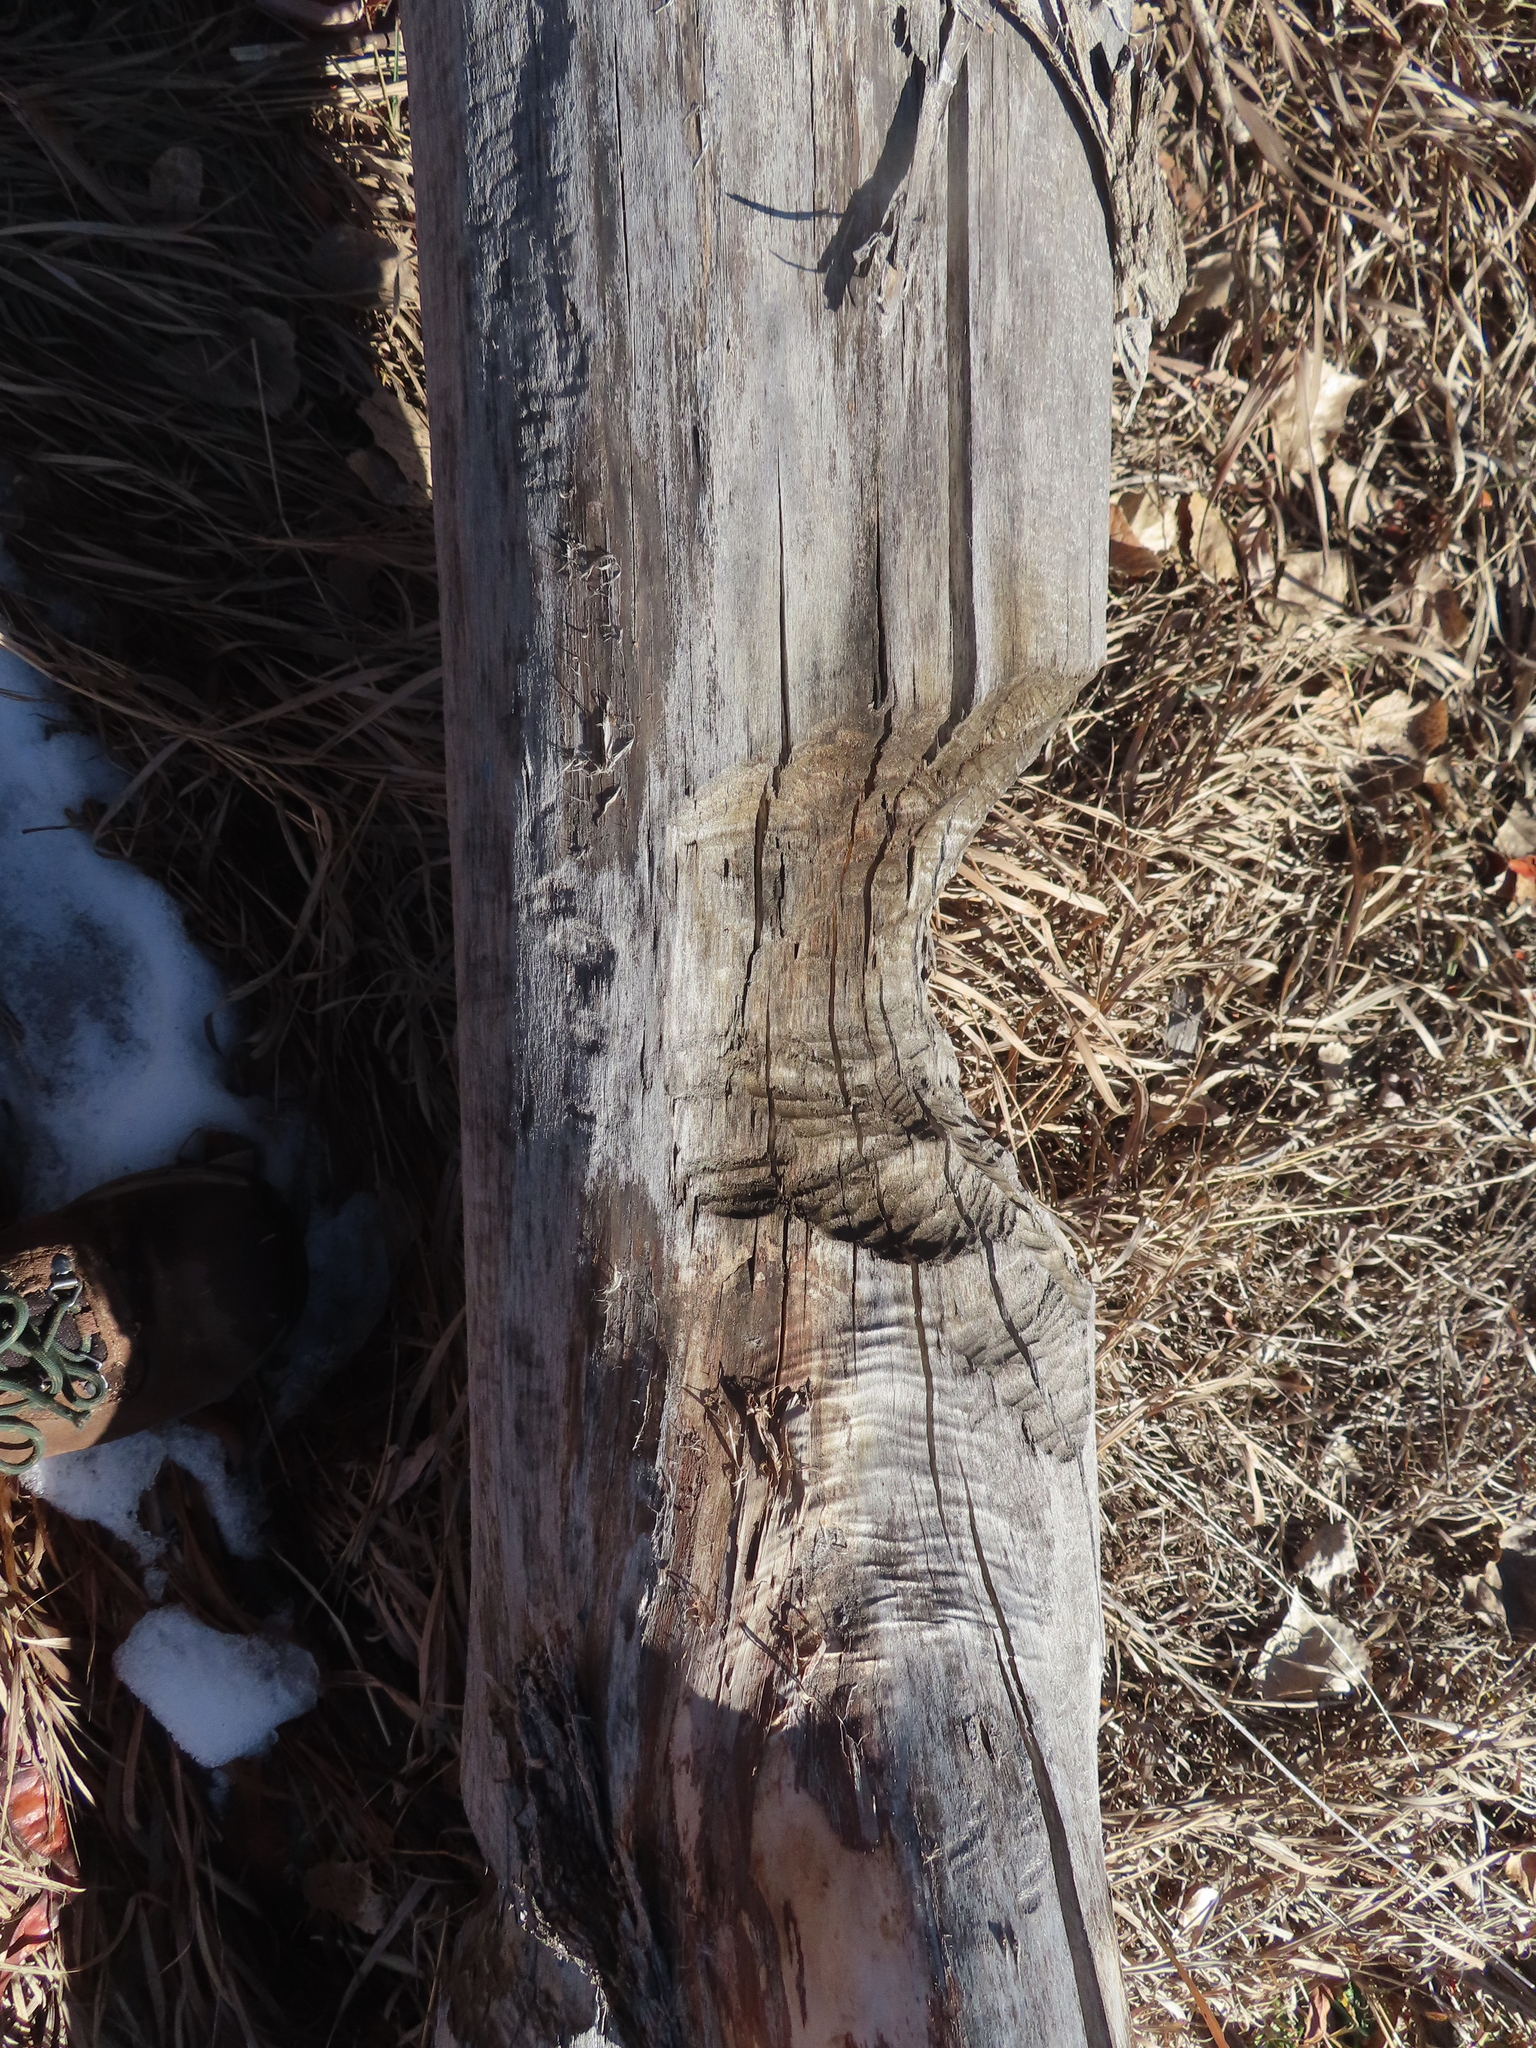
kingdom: Animalia
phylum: Chordata
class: Mammalia
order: Rodentia
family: Castoridae
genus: Castor
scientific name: Castor canadensis
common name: American beaver
